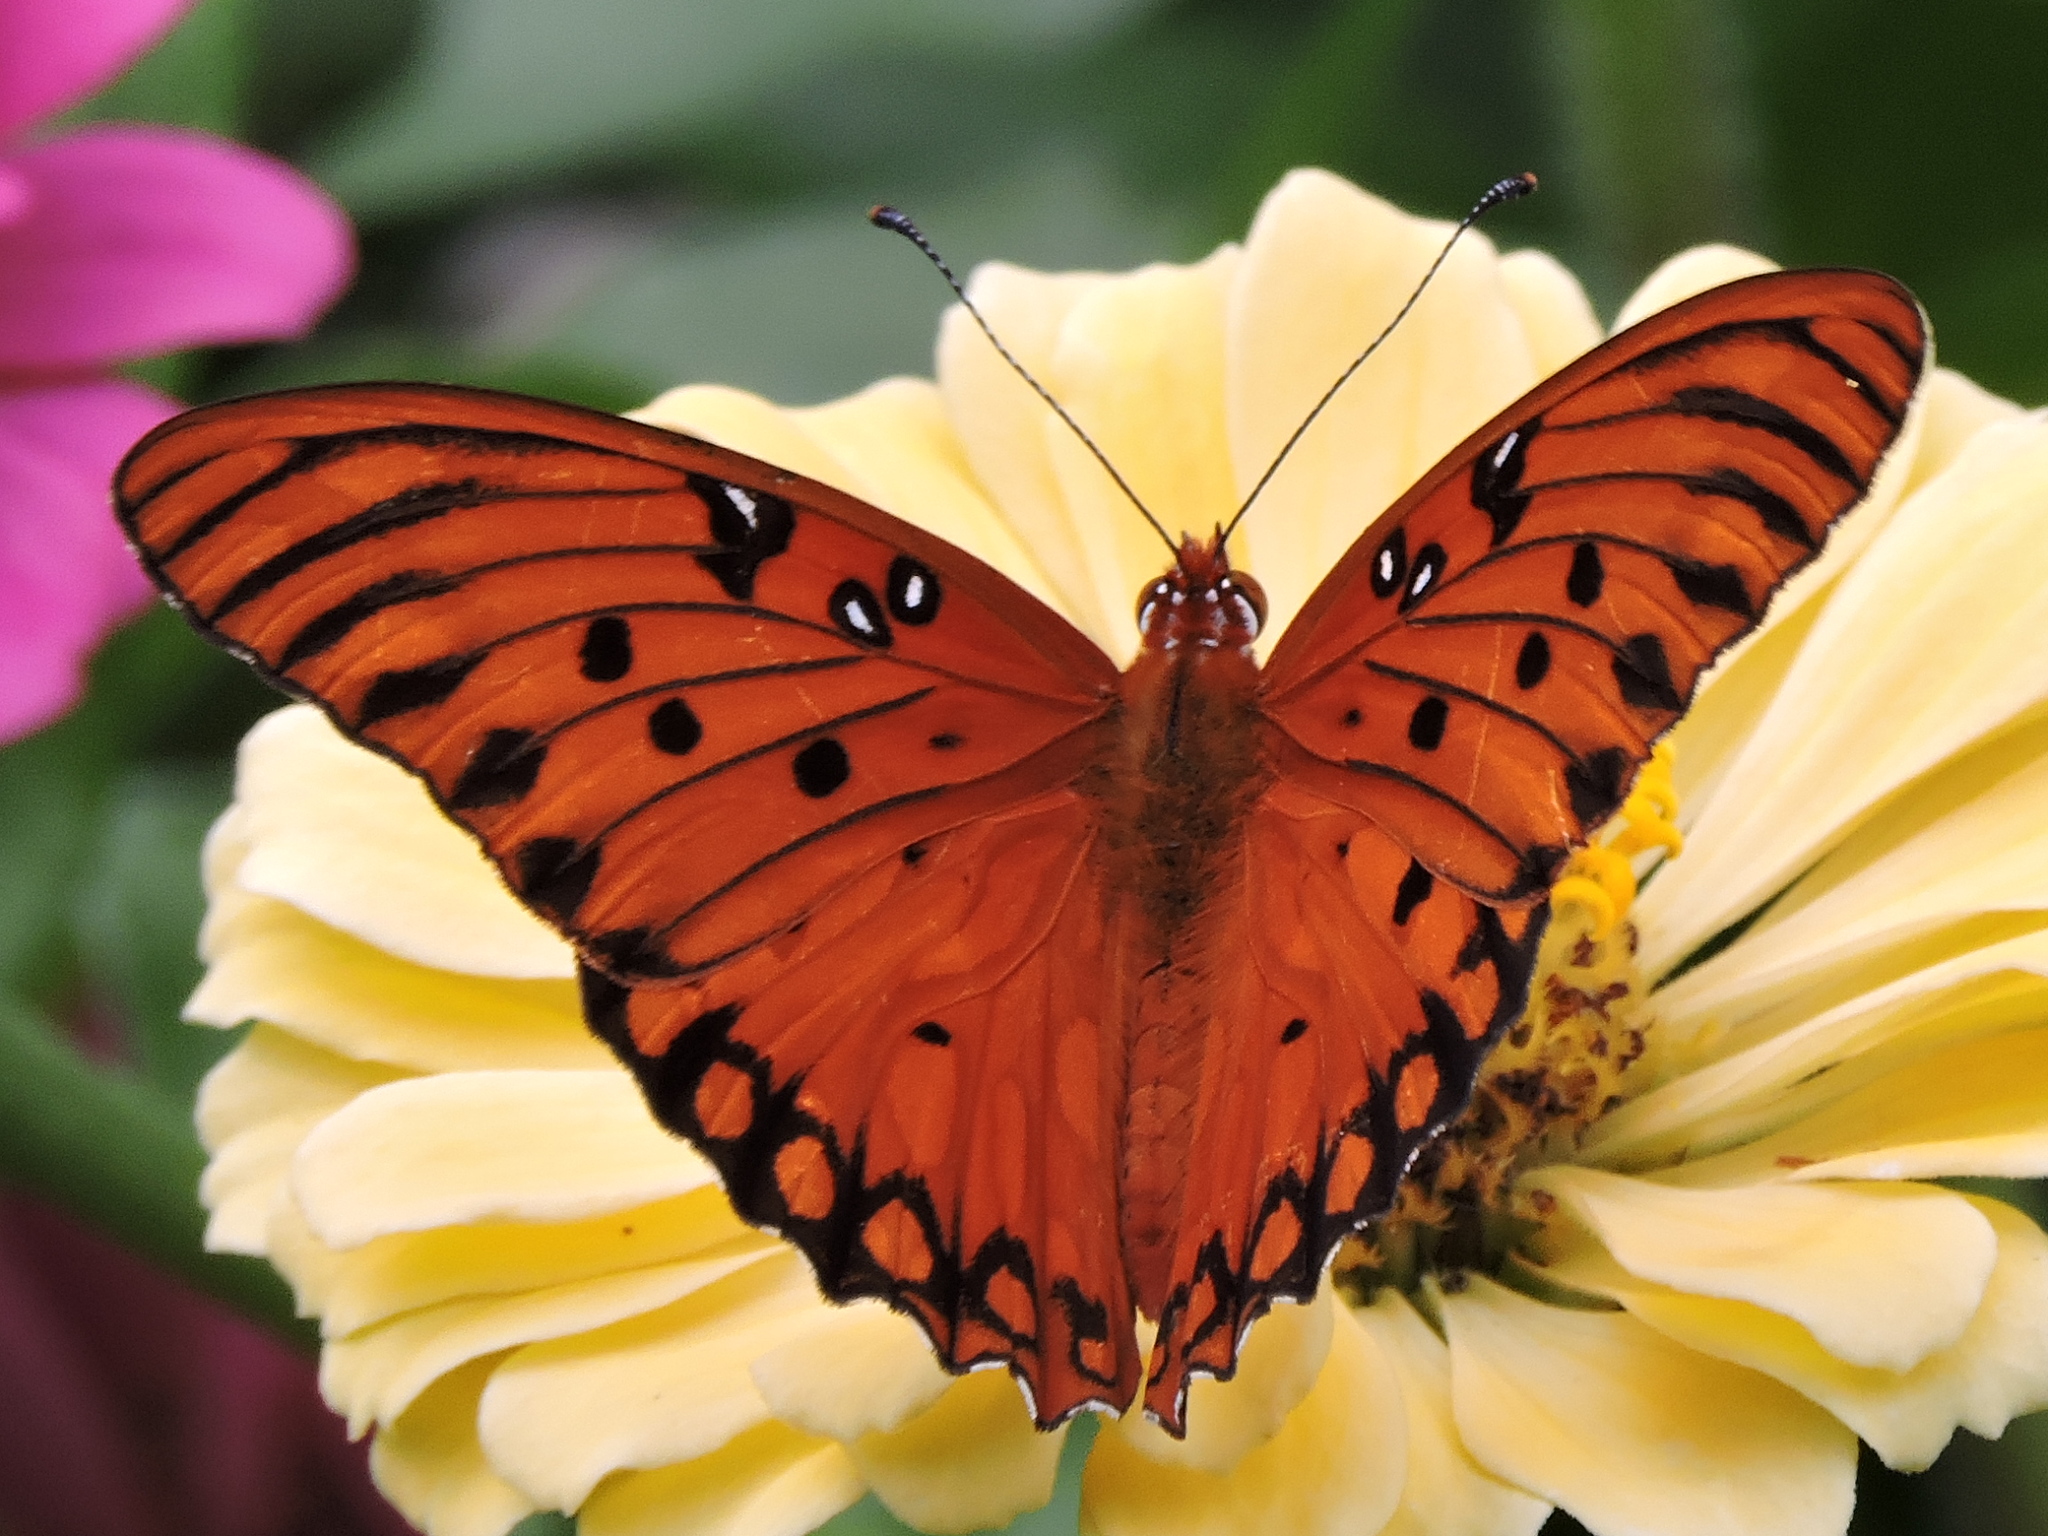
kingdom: Animalia
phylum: Arthropoda
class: Insecta
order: Lepidoptera
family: Nymphalidae
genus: Dione
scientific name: Dione vanillae
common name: Gulf fritillary
